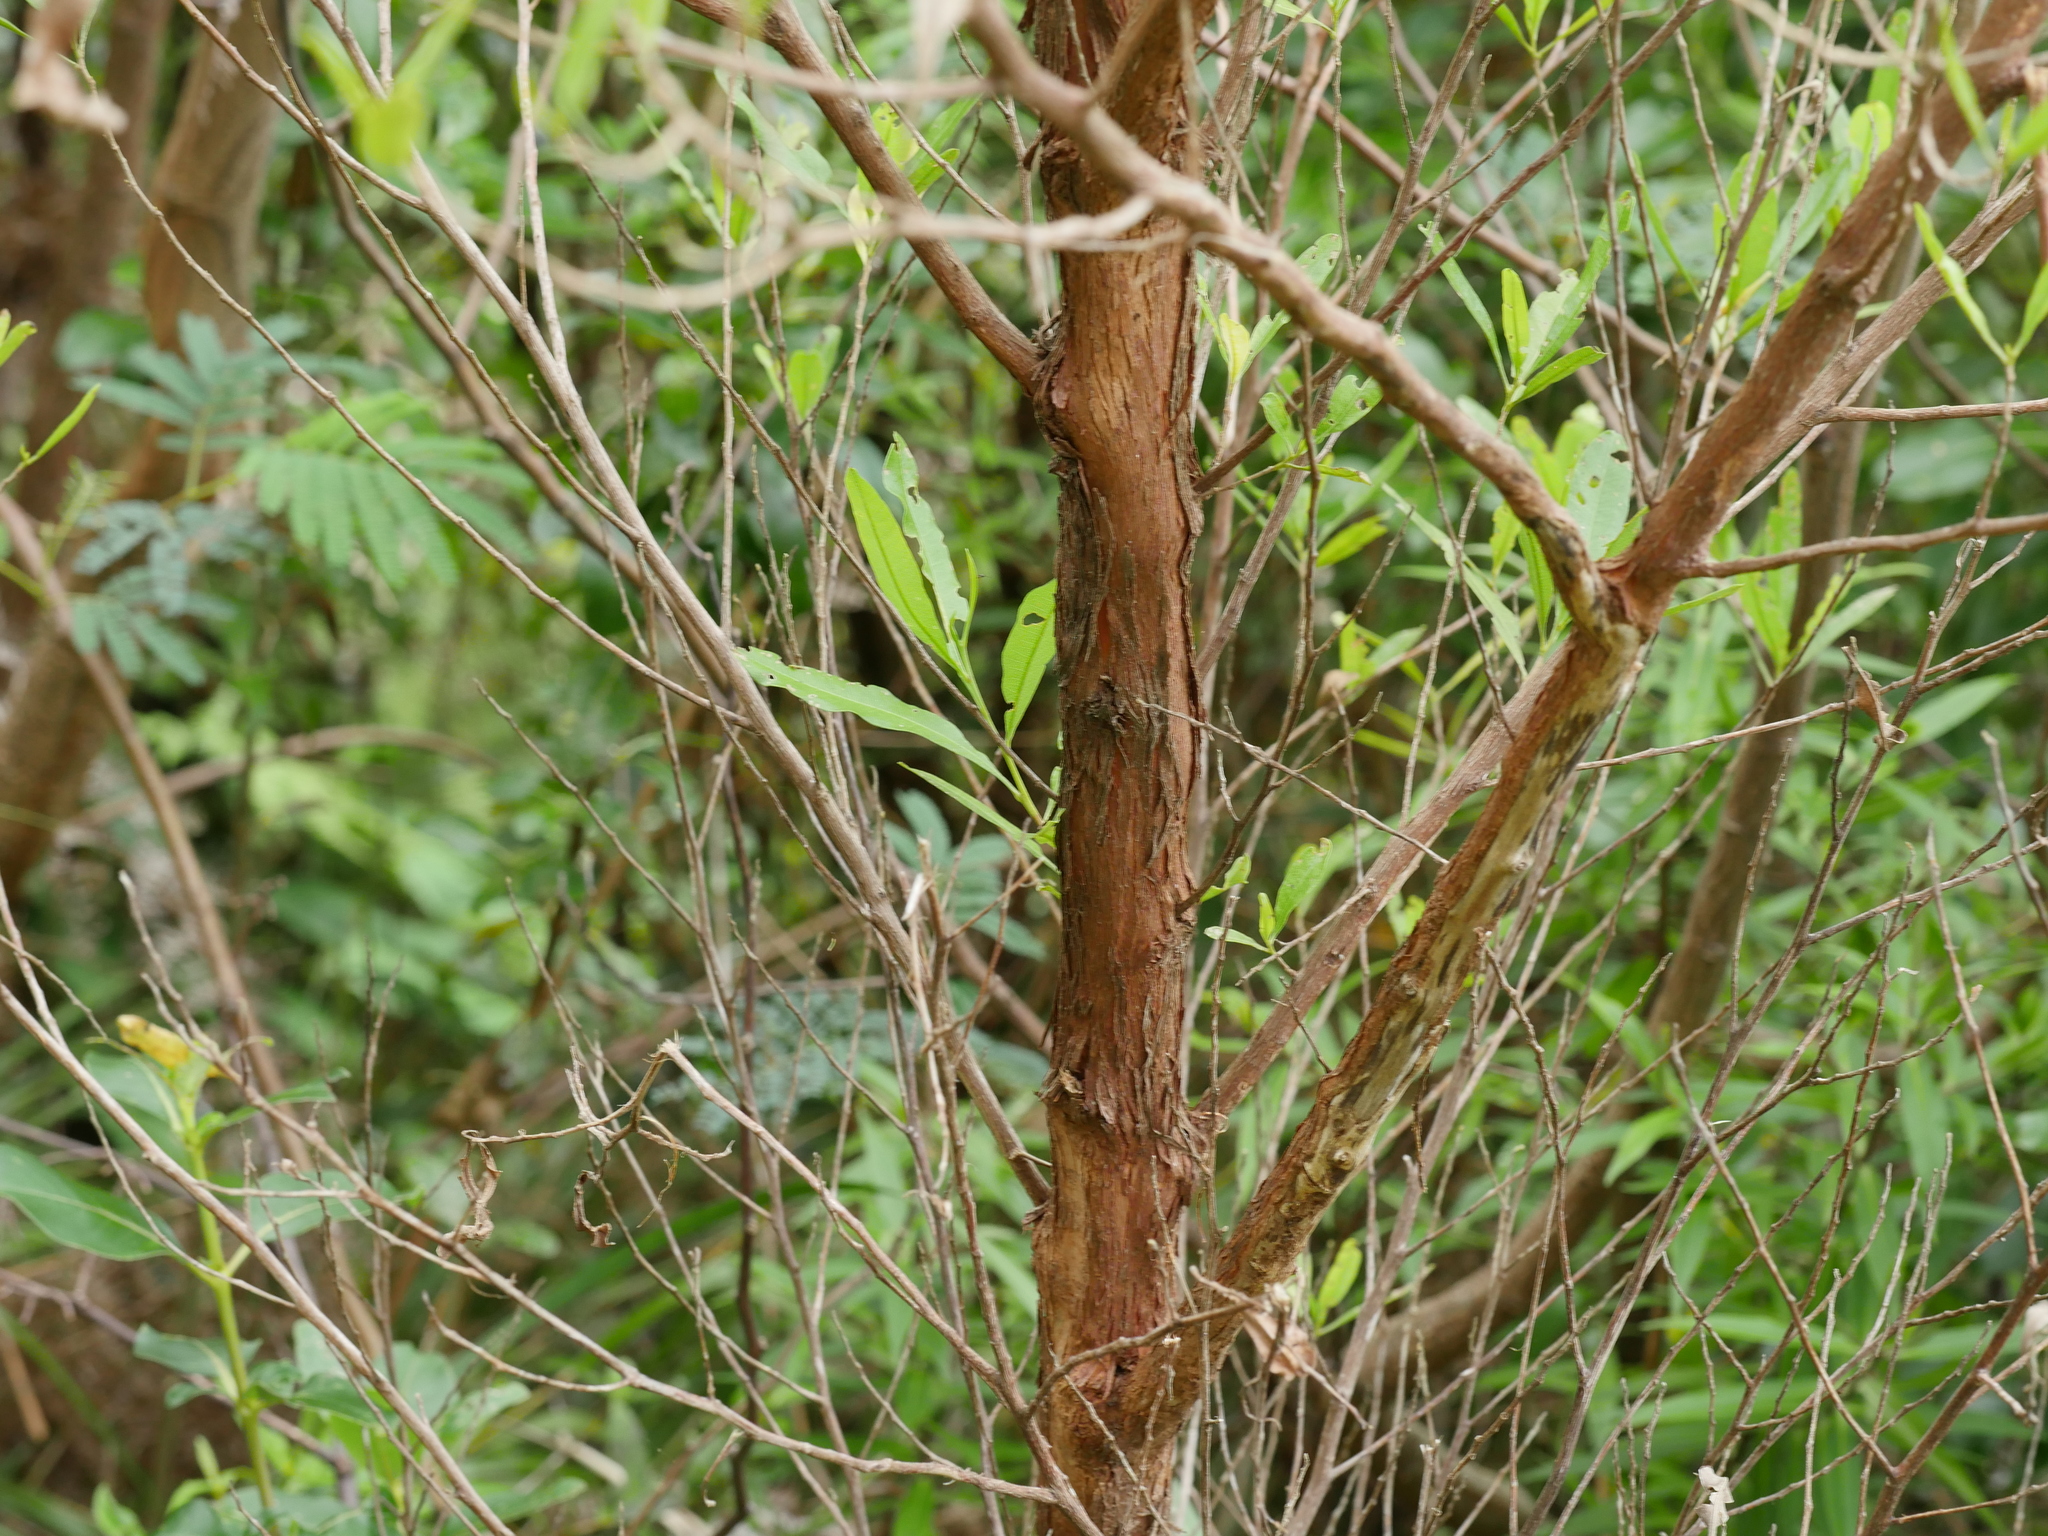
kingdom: Plantae
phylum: Tracheophyta
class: Magnoliopsida
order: Sapindales
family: Sapindaceae
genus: Dodonaea
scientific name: Dodonaea viscosa
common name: Hopbush
